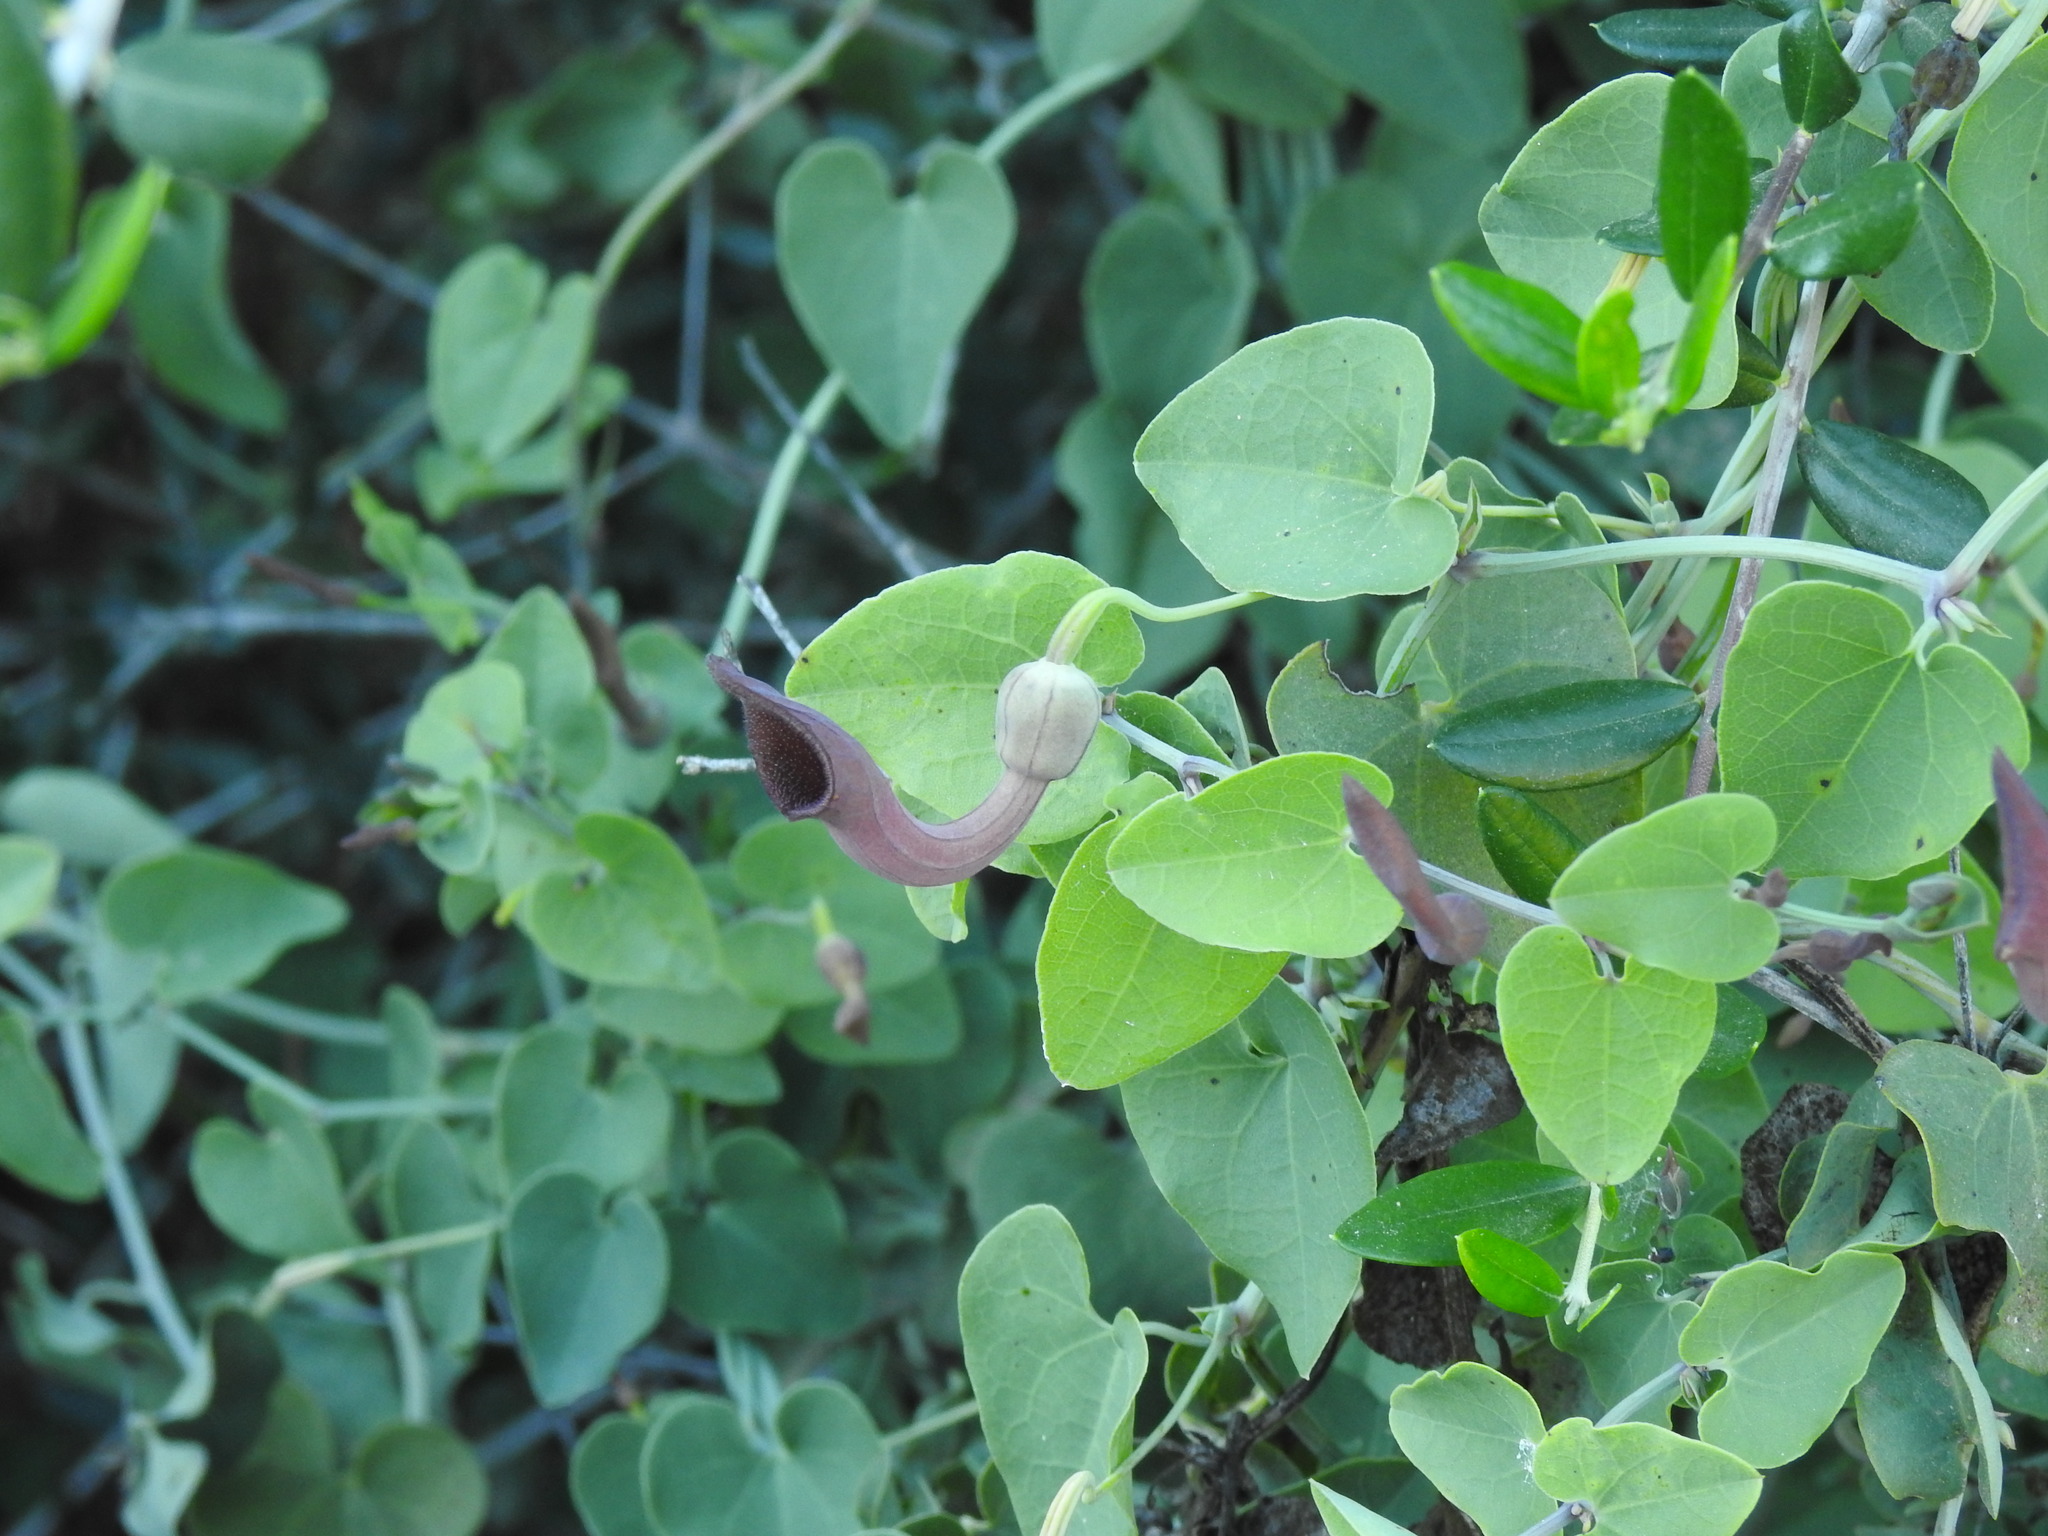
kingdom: Plantae
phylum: Tracheophyta
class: Magnoliopsida
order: Piperales
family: Aristolochiaceae
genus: Aristolochia
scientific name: Aristolochia baetica
